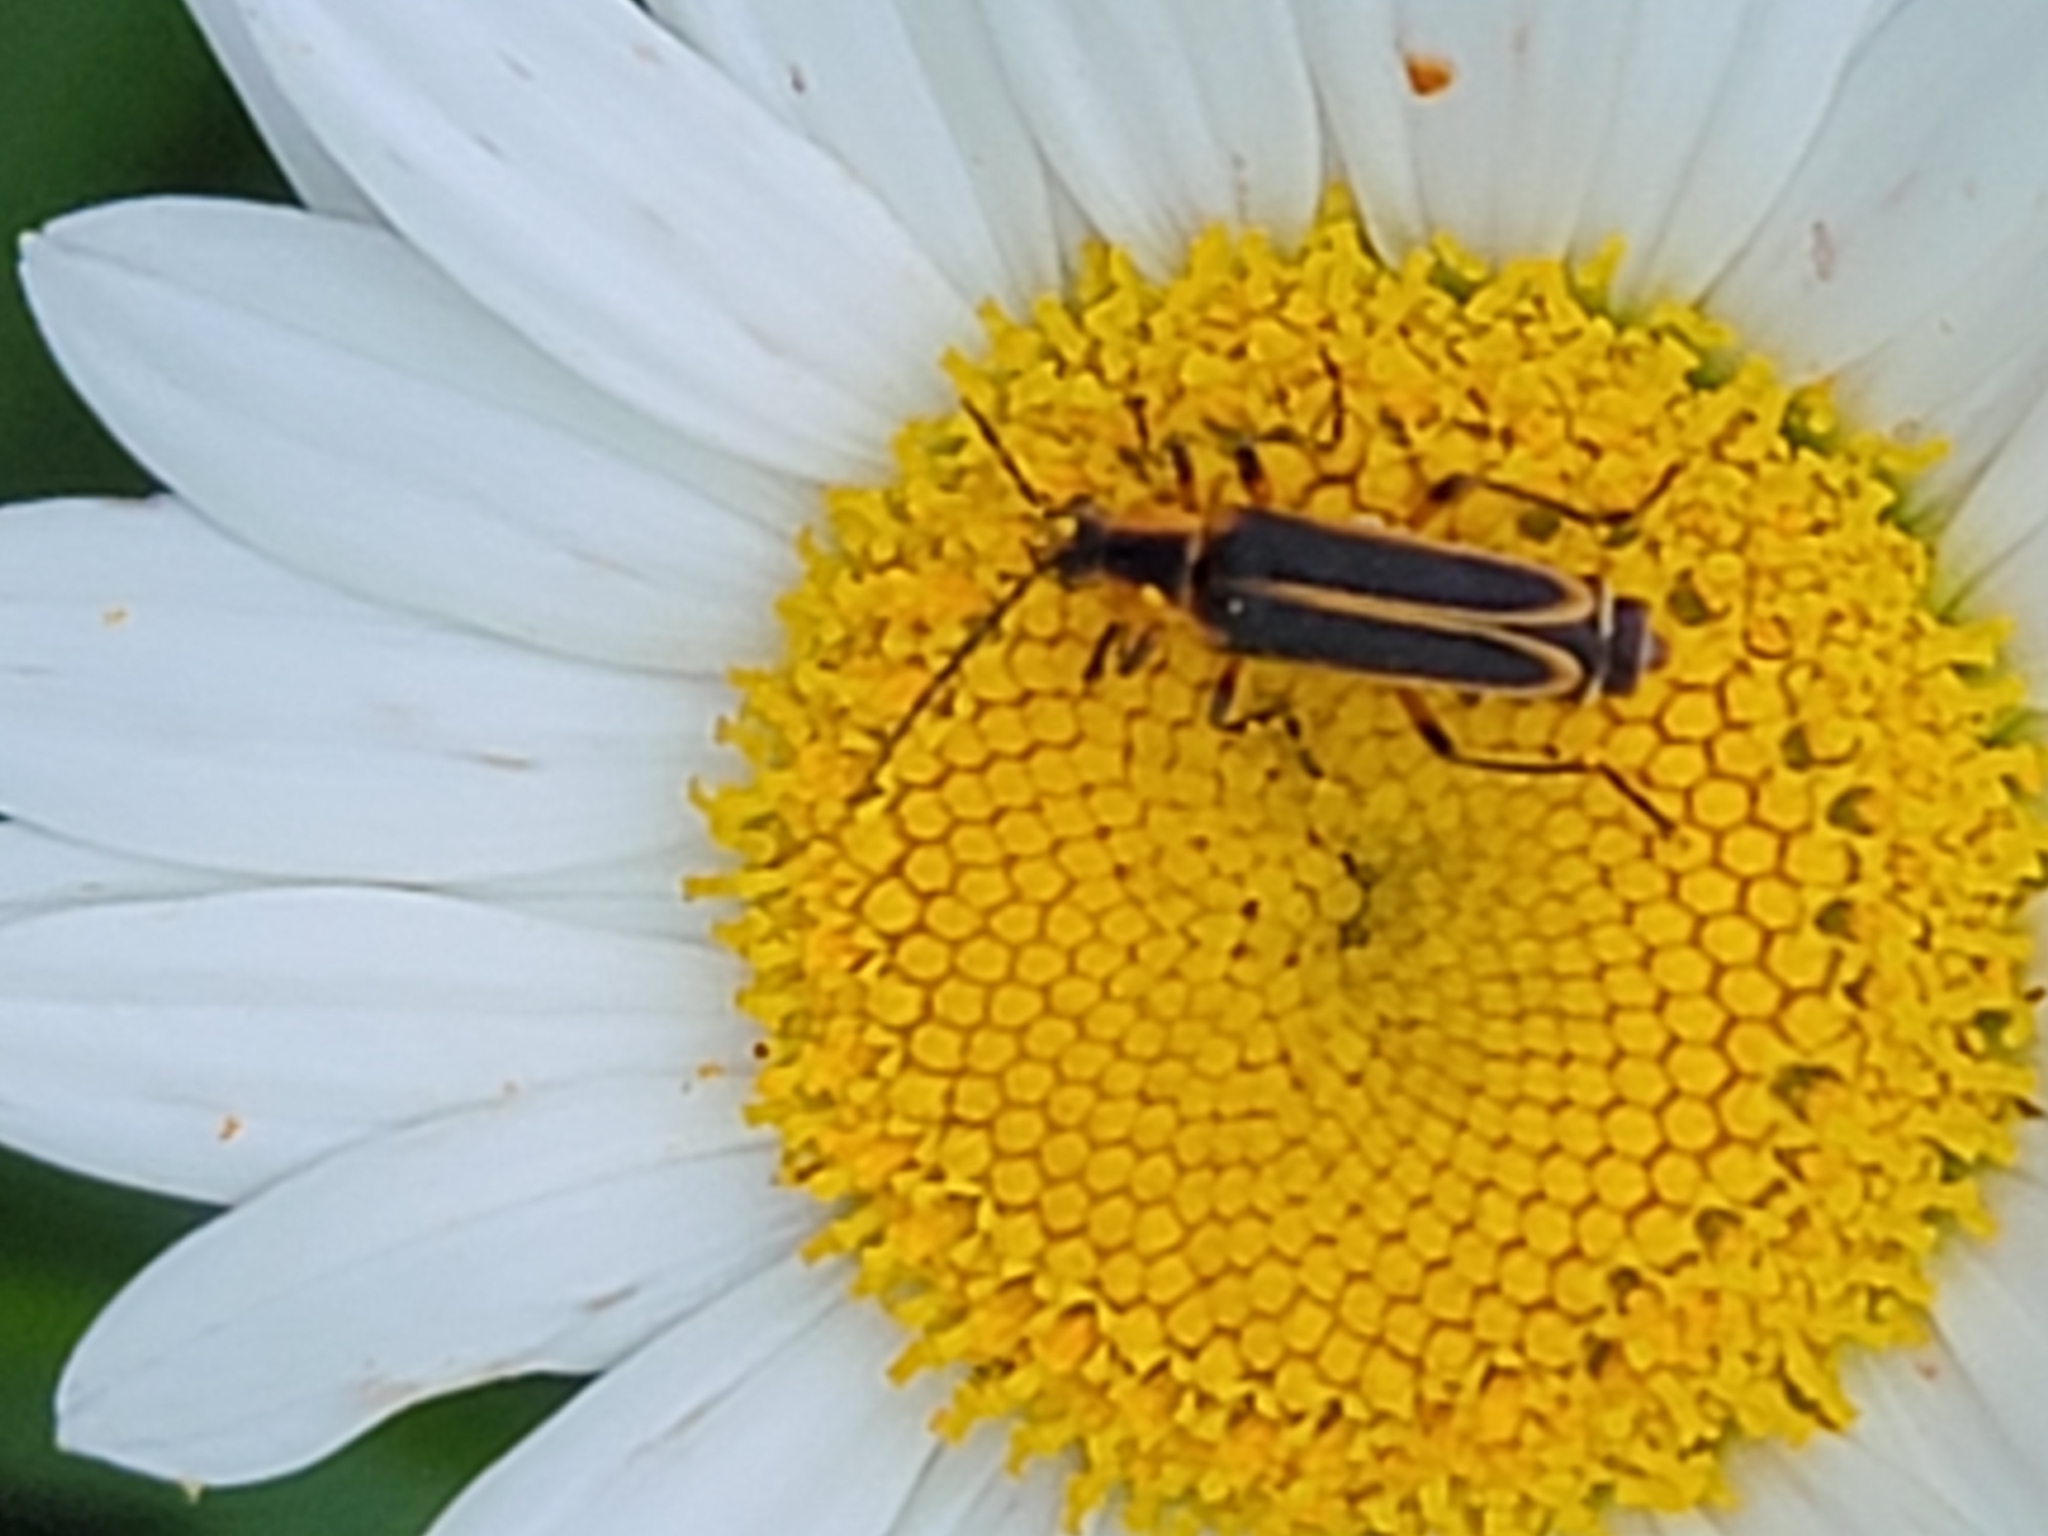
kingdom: Animalia
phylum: Arthropoda
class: Insecta
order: Coleoptera
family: Cantharidae
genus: Chauliognathus
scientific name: Chauliognathus marginatus
